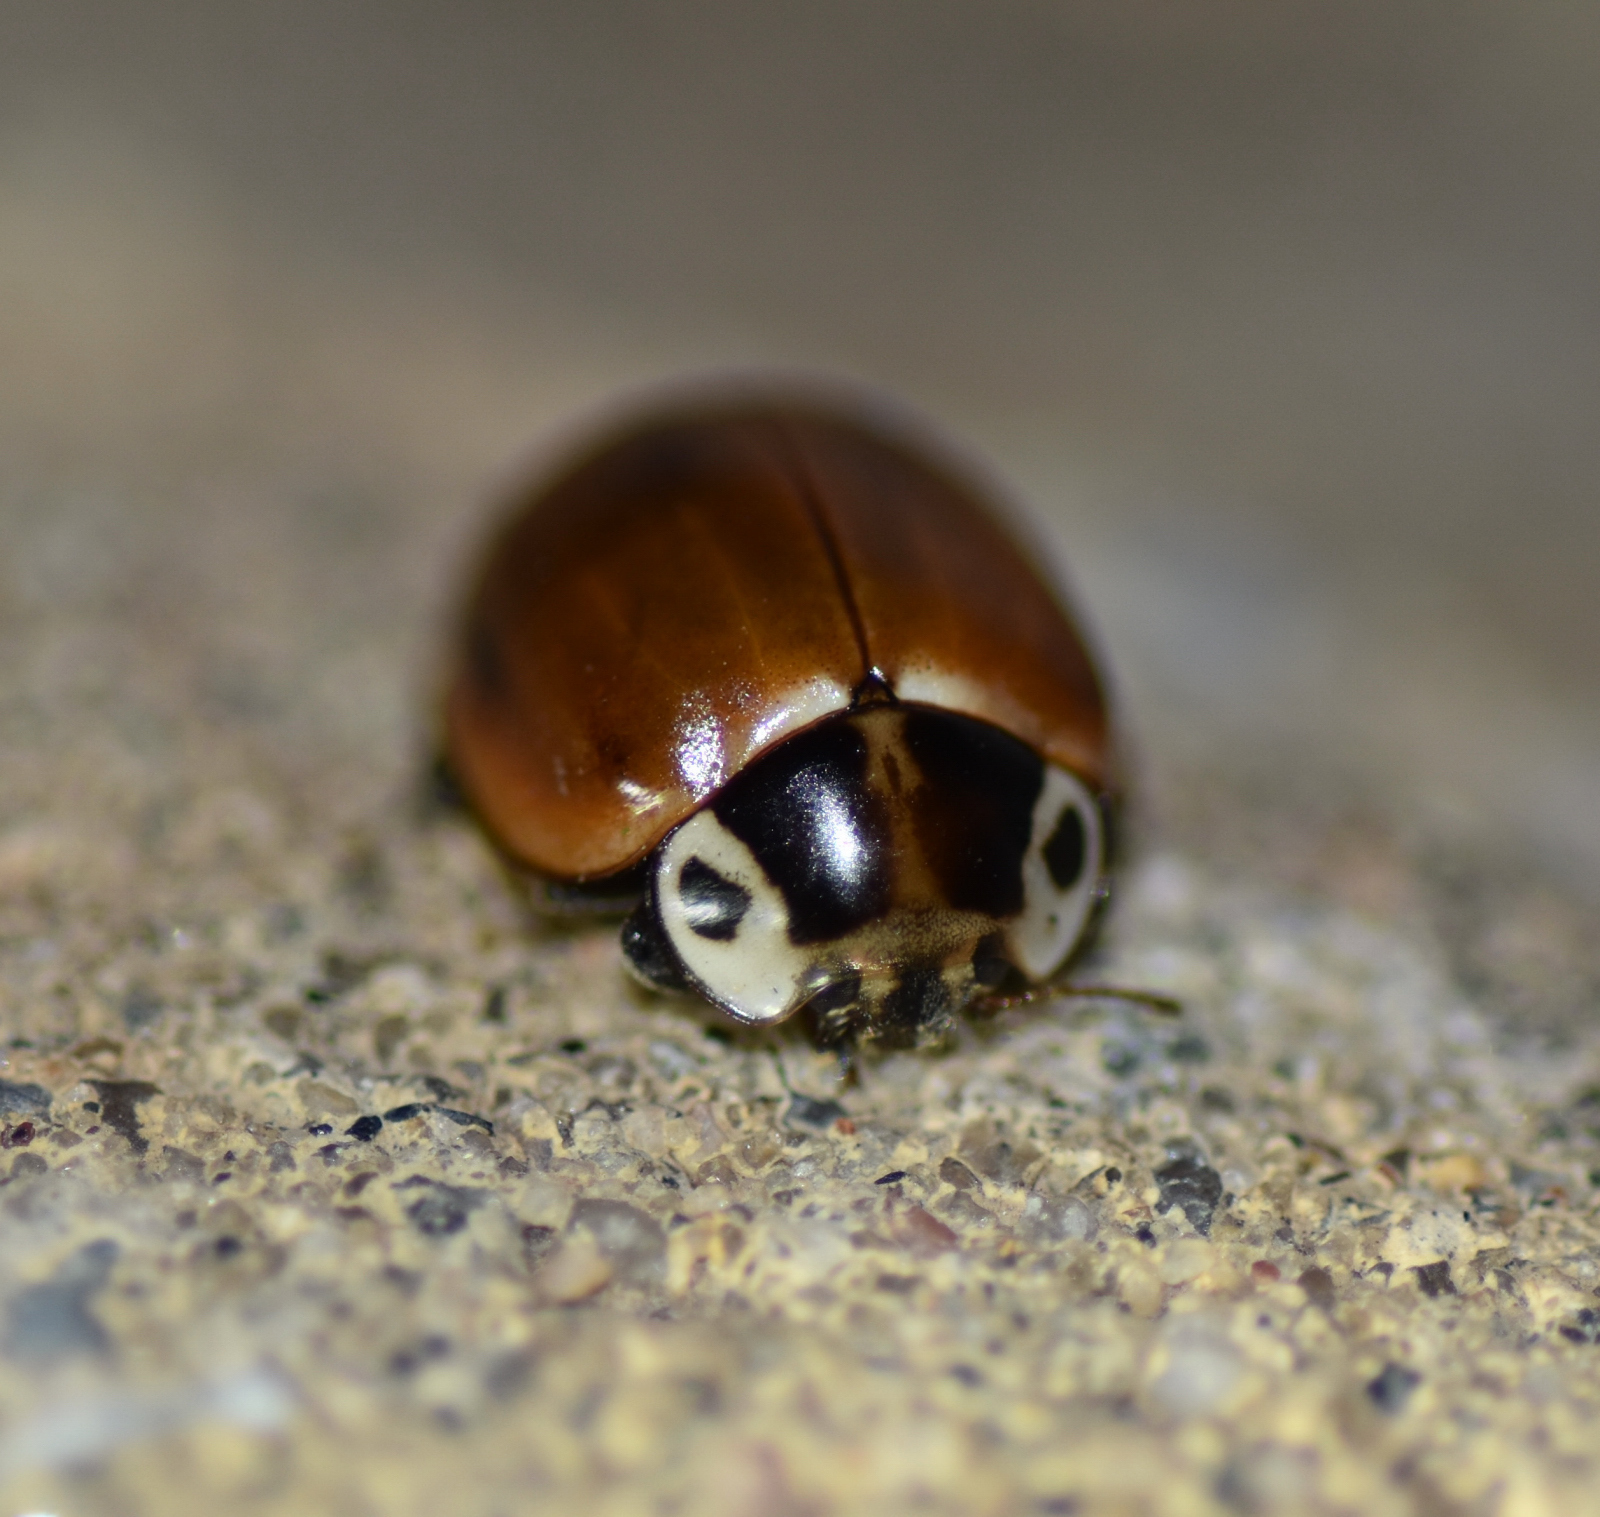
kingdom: Animalia
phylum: Arthropoda
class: Insecta
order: Coleoptera
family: Coccinellidae
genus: Myzia
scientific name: Myzia pullata
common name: Streaked lady beetle
